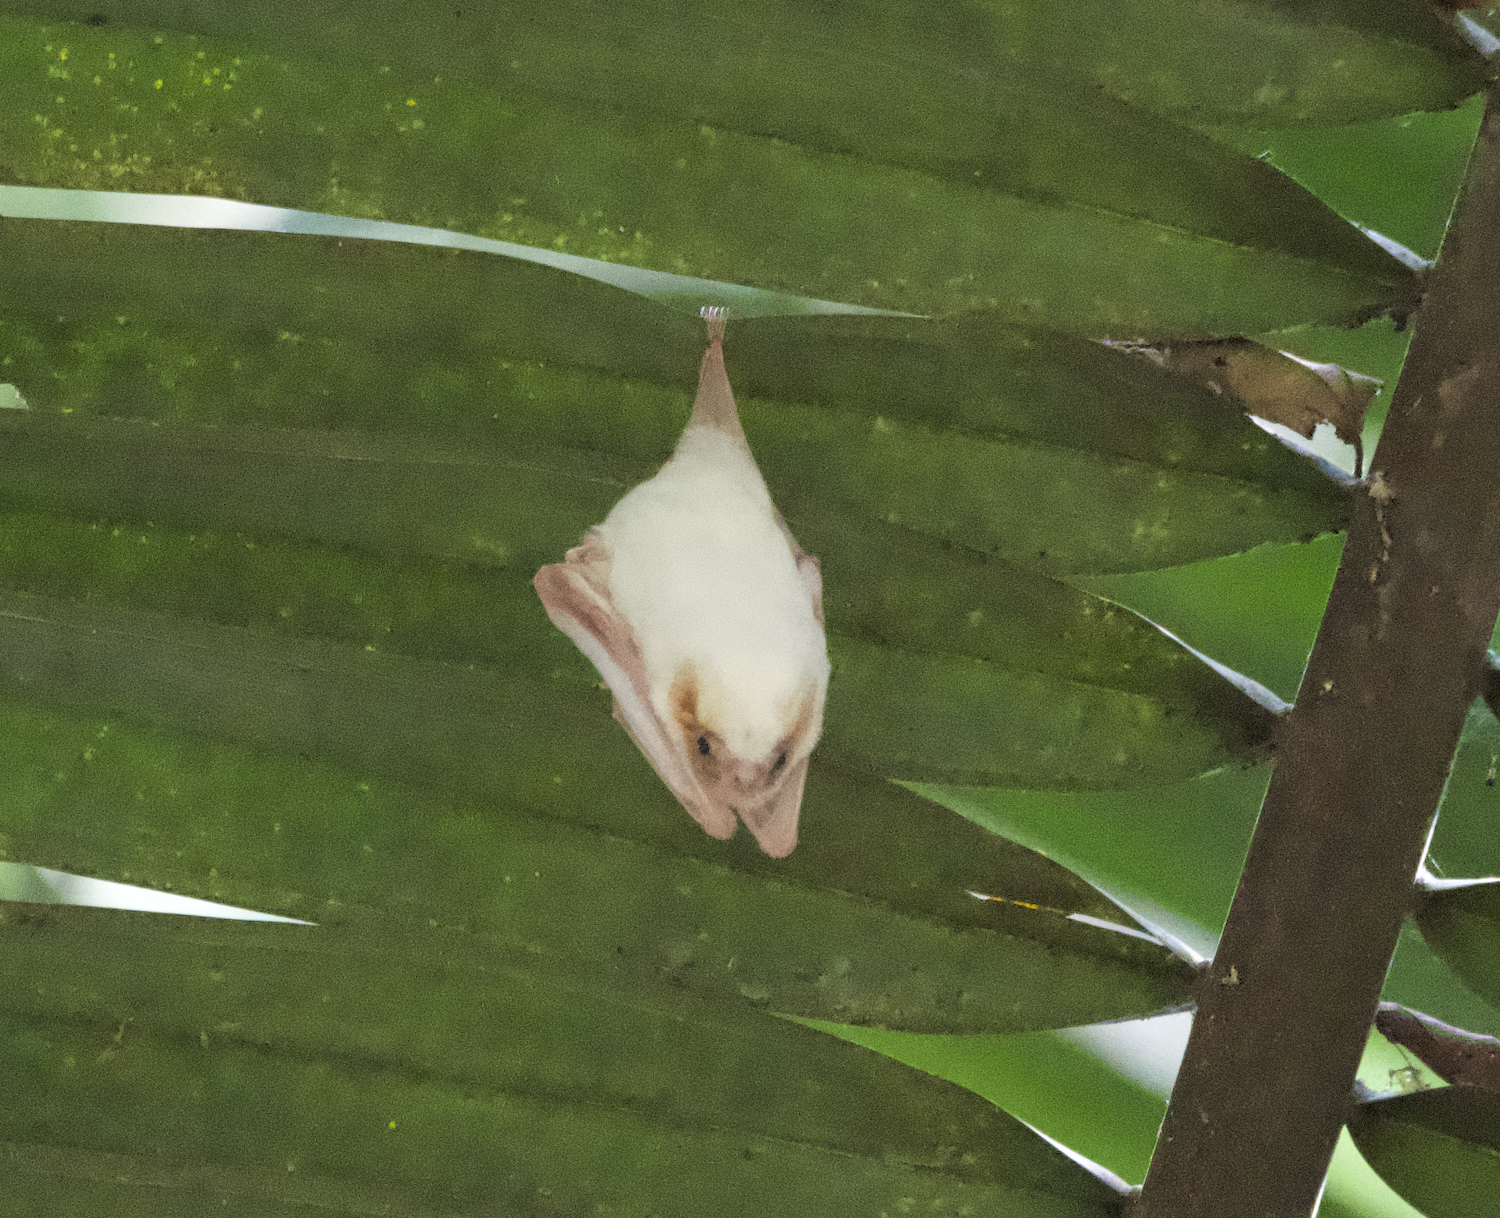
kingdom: Animalia
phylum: Chordata
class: Mammalia
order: Chiroptera
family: Emballonuridae
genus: Diclidurus
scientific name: Diclidurus albus
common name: Northern ghost bat
